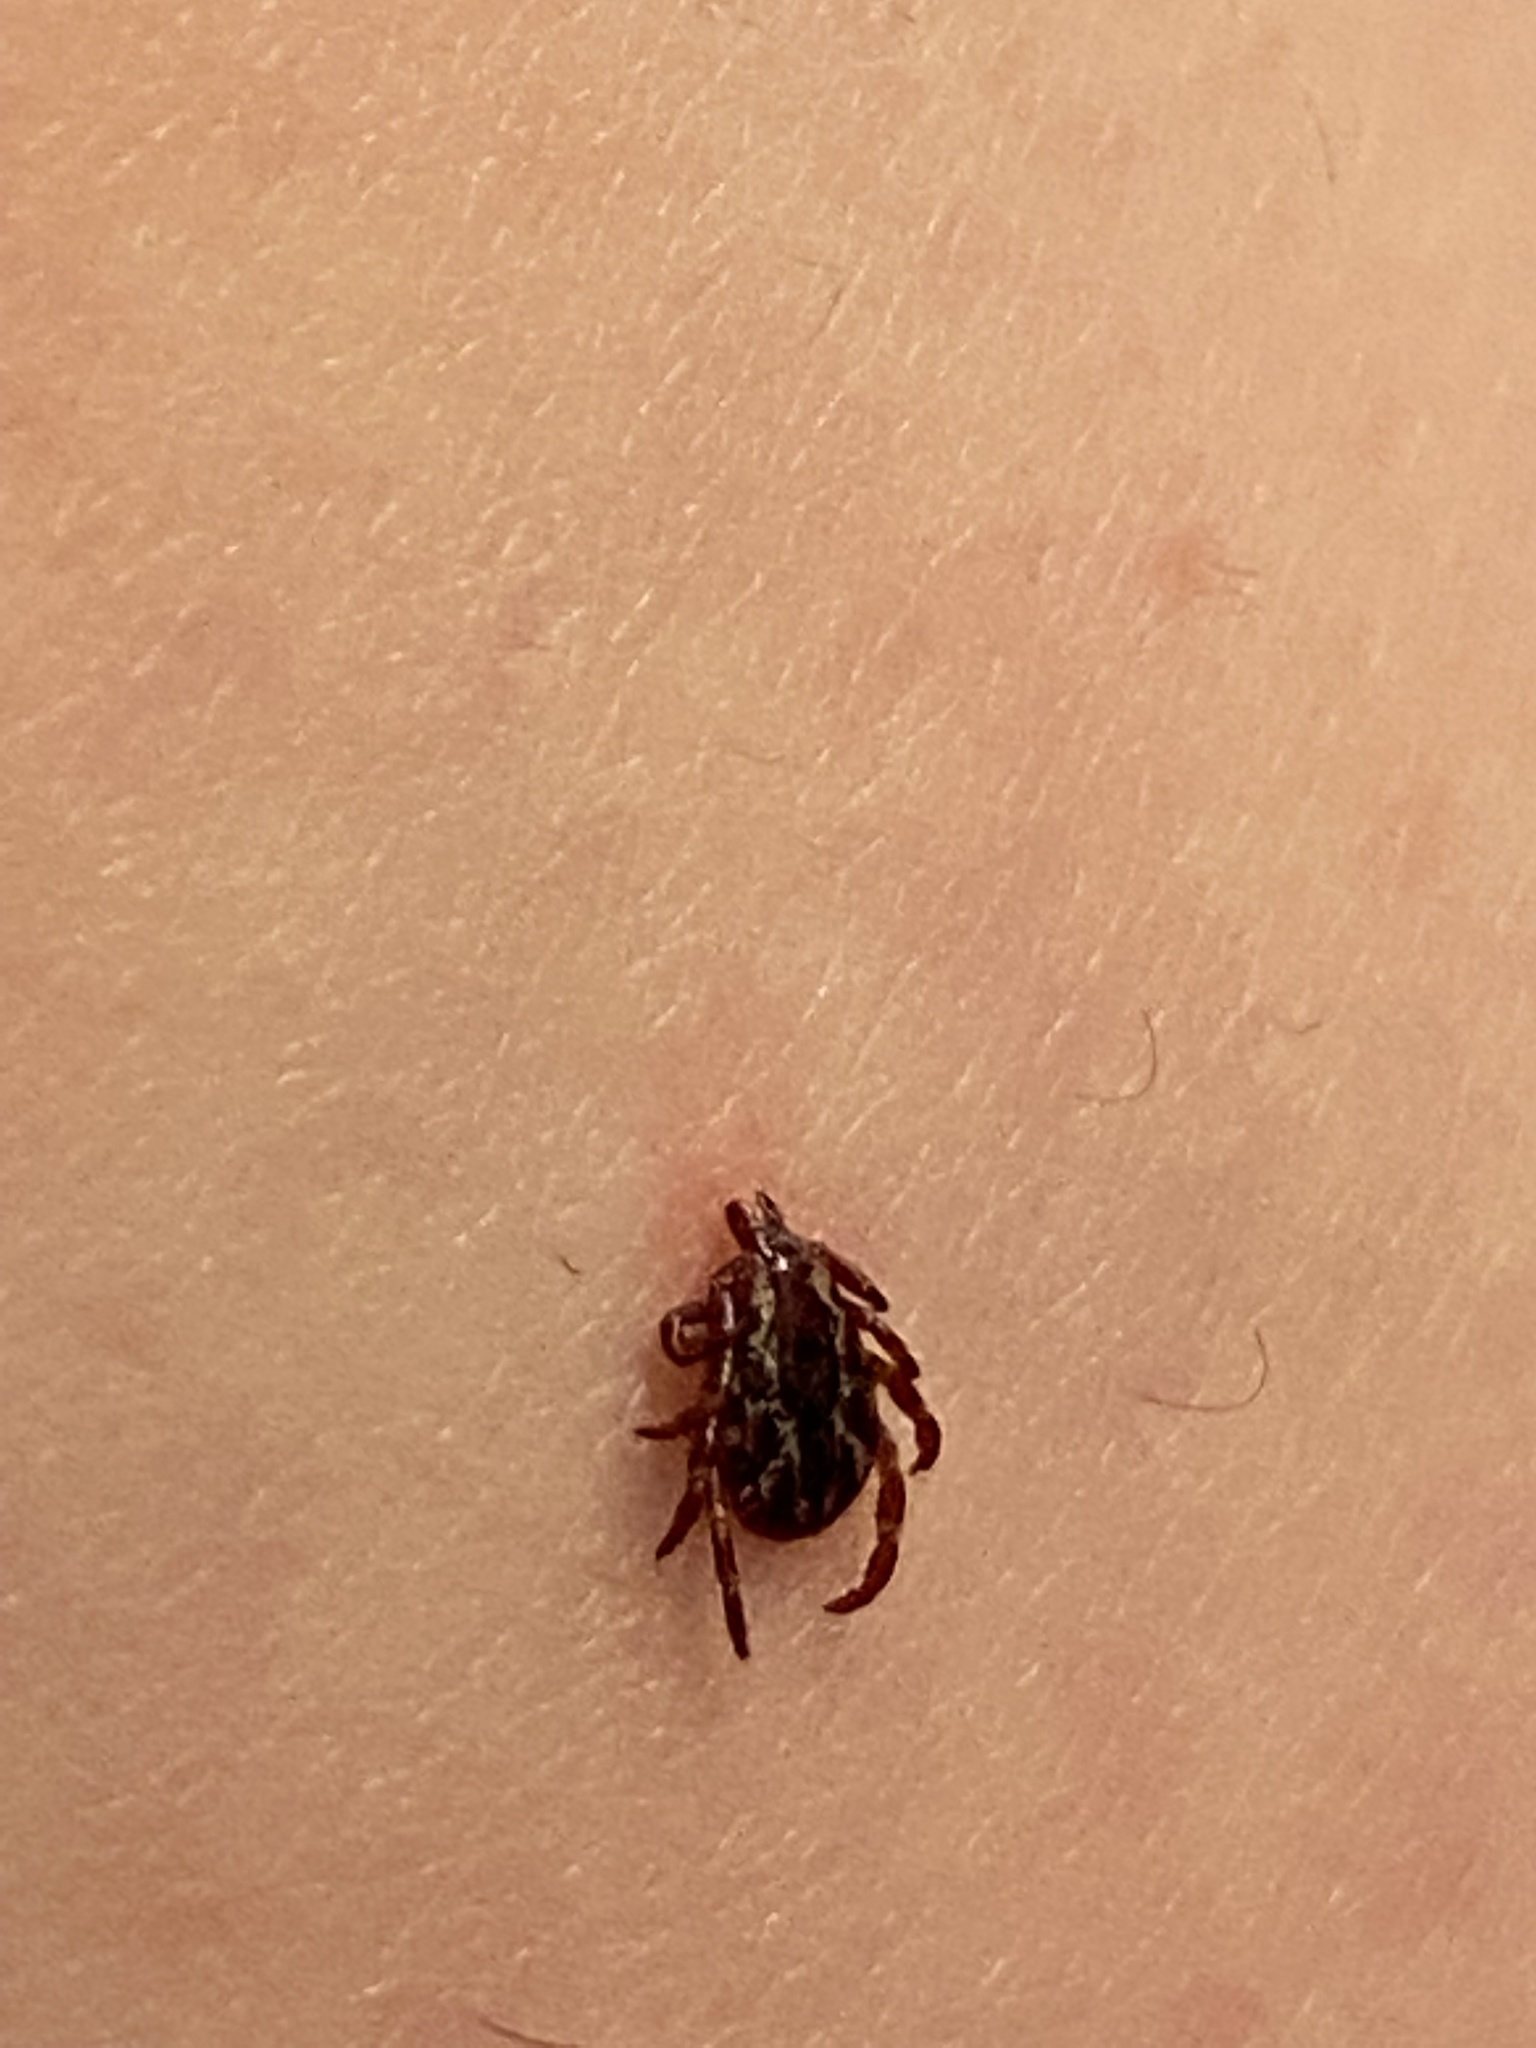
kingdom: Animalia
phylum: Arthropoda
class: Arachnida
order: Ixodida
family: Ixodidae
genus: Dermacentor
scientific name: Dermacentor variabilis
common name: American dog tick
